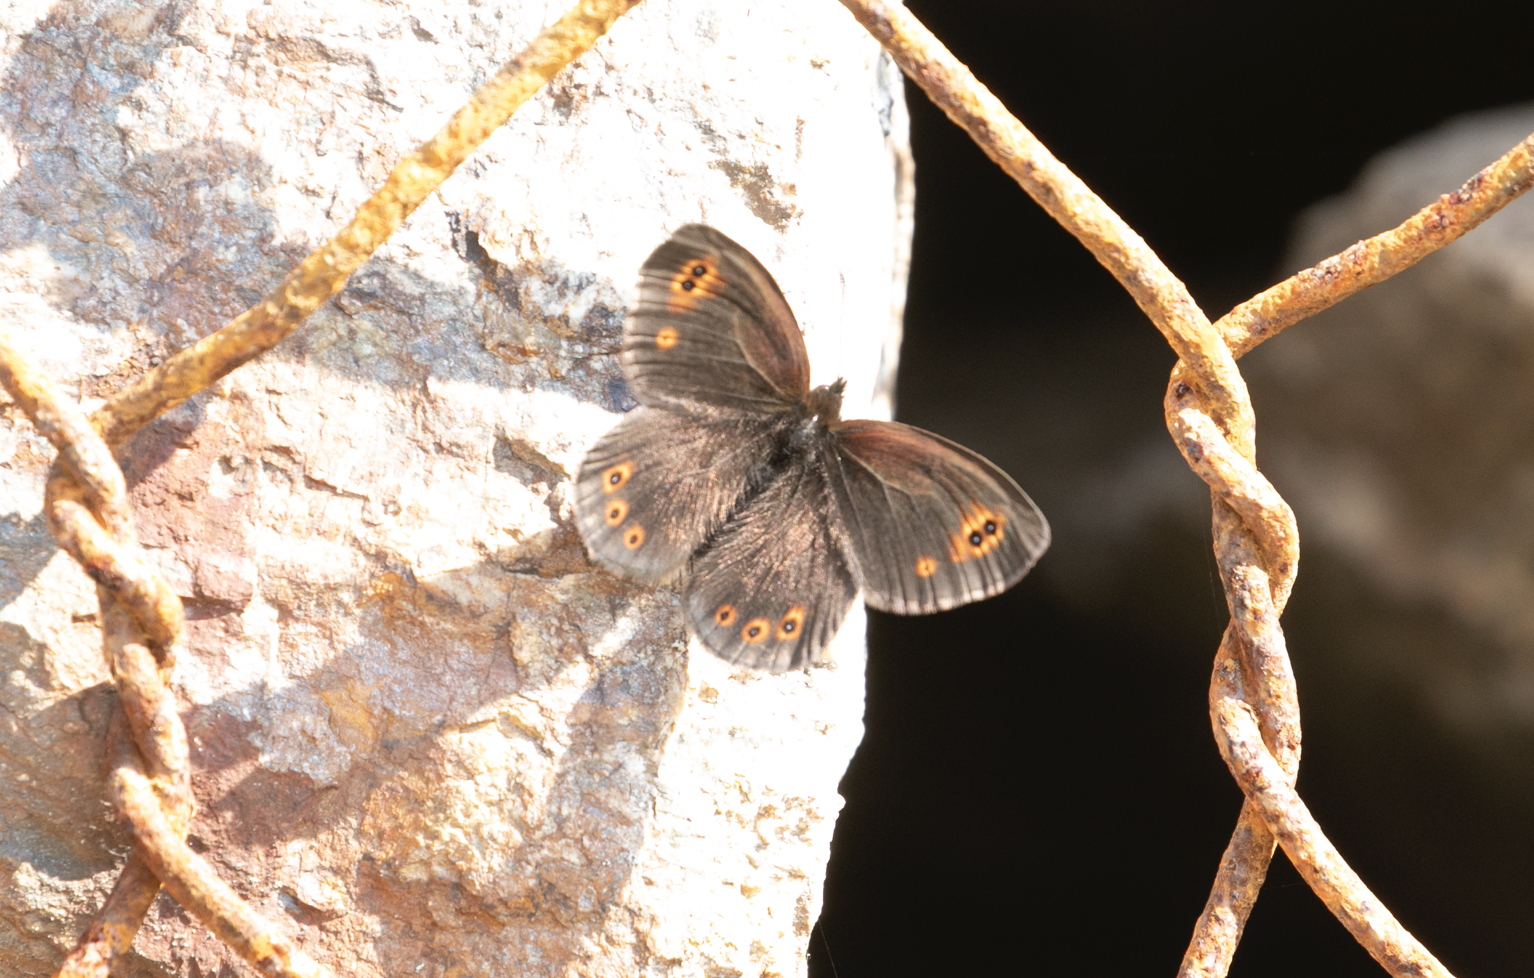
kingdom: Animalia
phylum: Arthropoda
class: Insecta
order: Lepidoptera
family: Nymphalidae
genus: Erebia
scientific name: Erebia medusa
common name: Woodland ringlet
